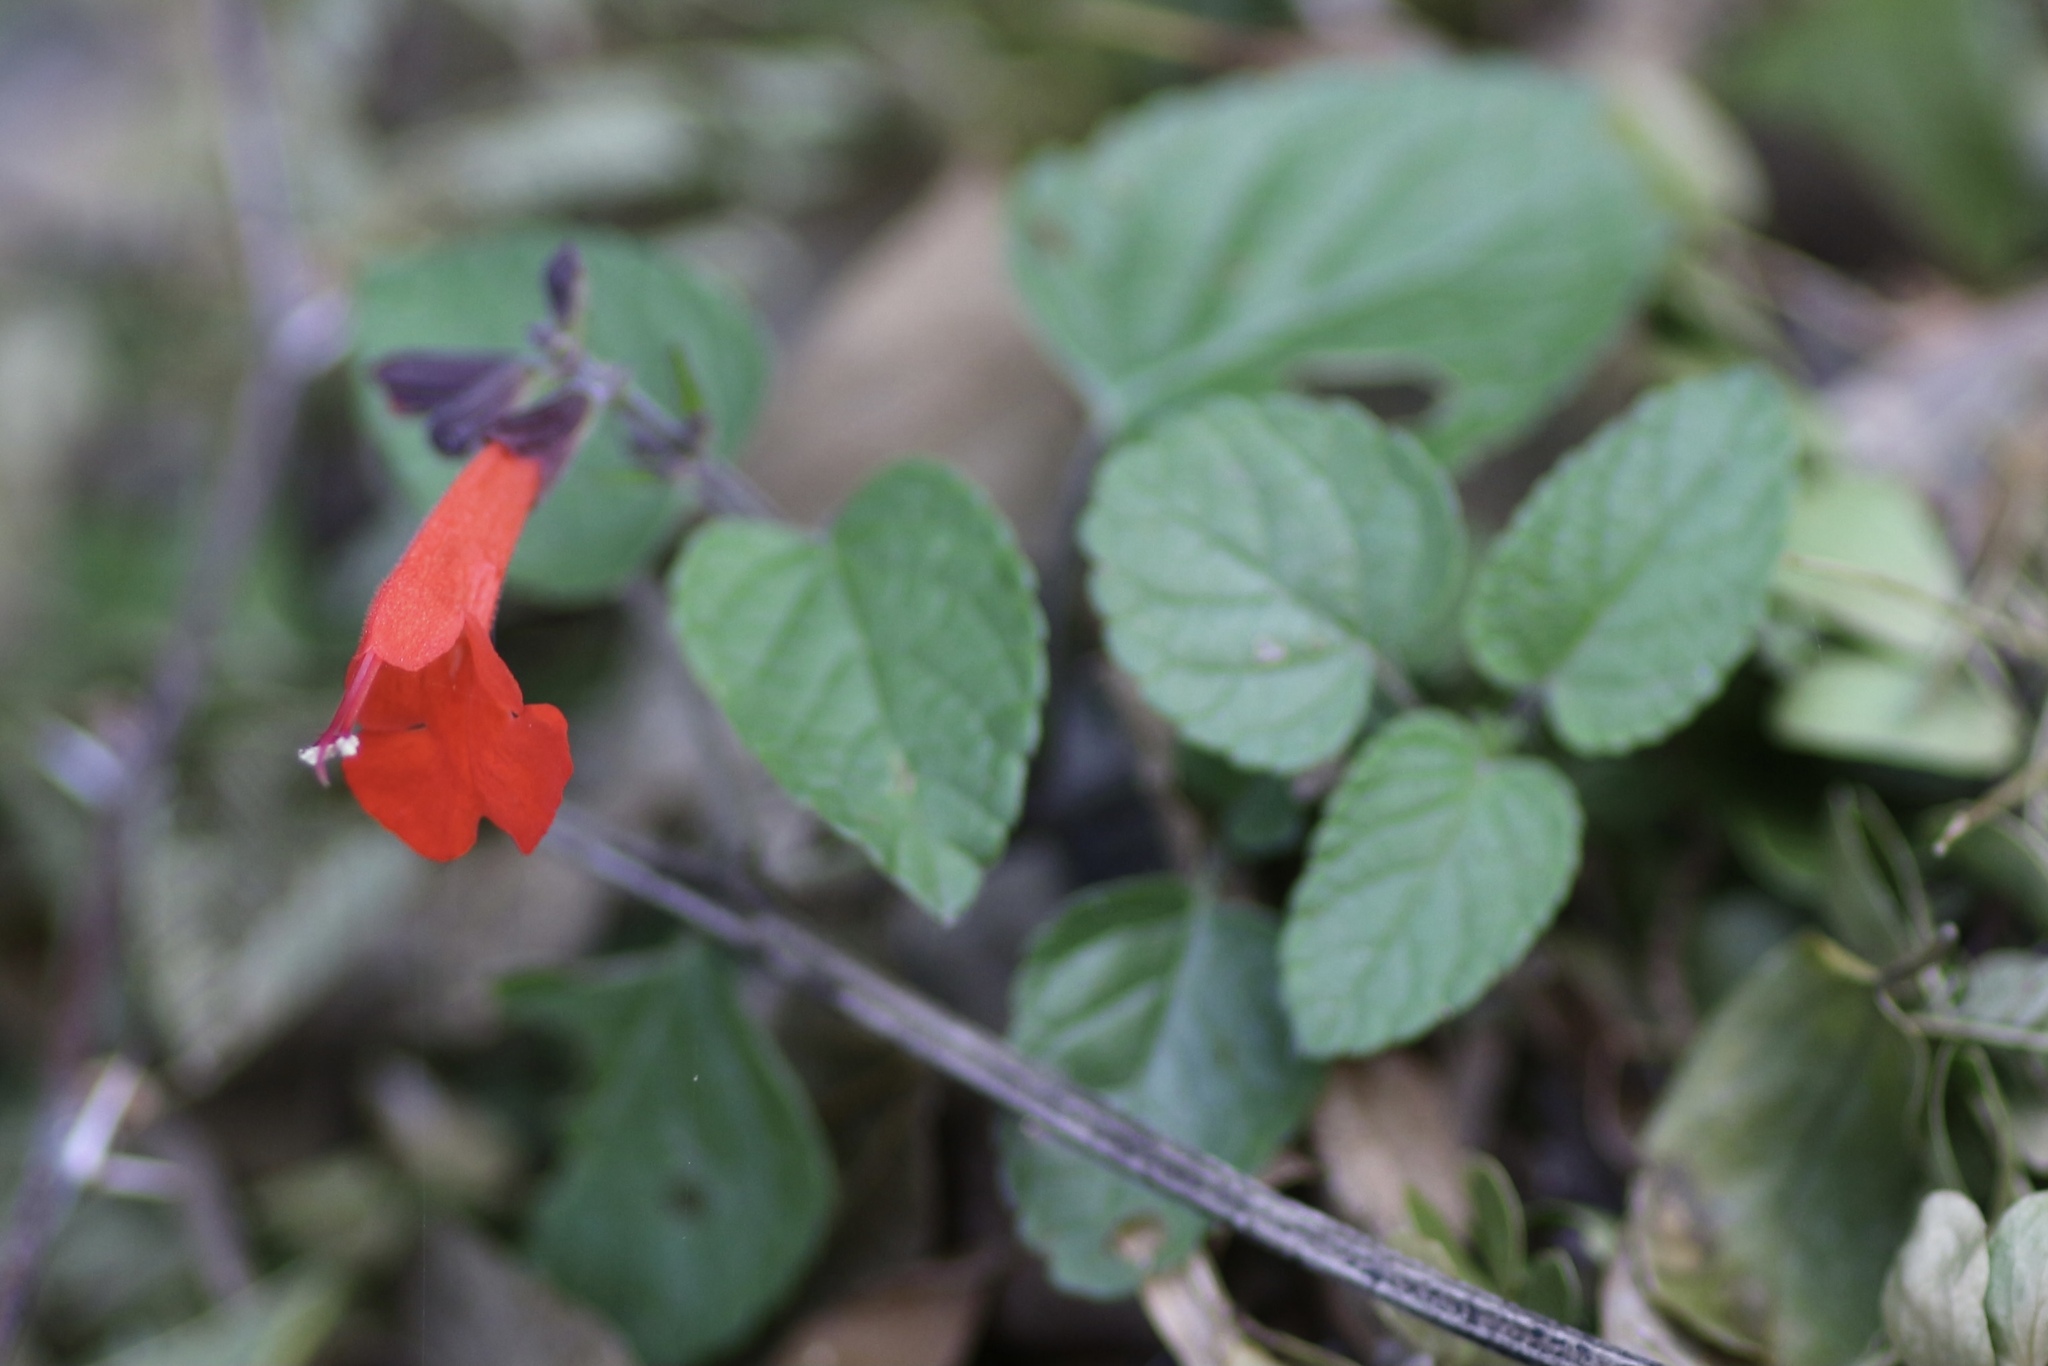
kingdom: Plantae
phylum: Tracheophyta
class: Magnoliopsida
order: Lamiales
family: Lamiaceae
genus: Salvia
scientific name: Salvia coccinea
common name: Blood sage
